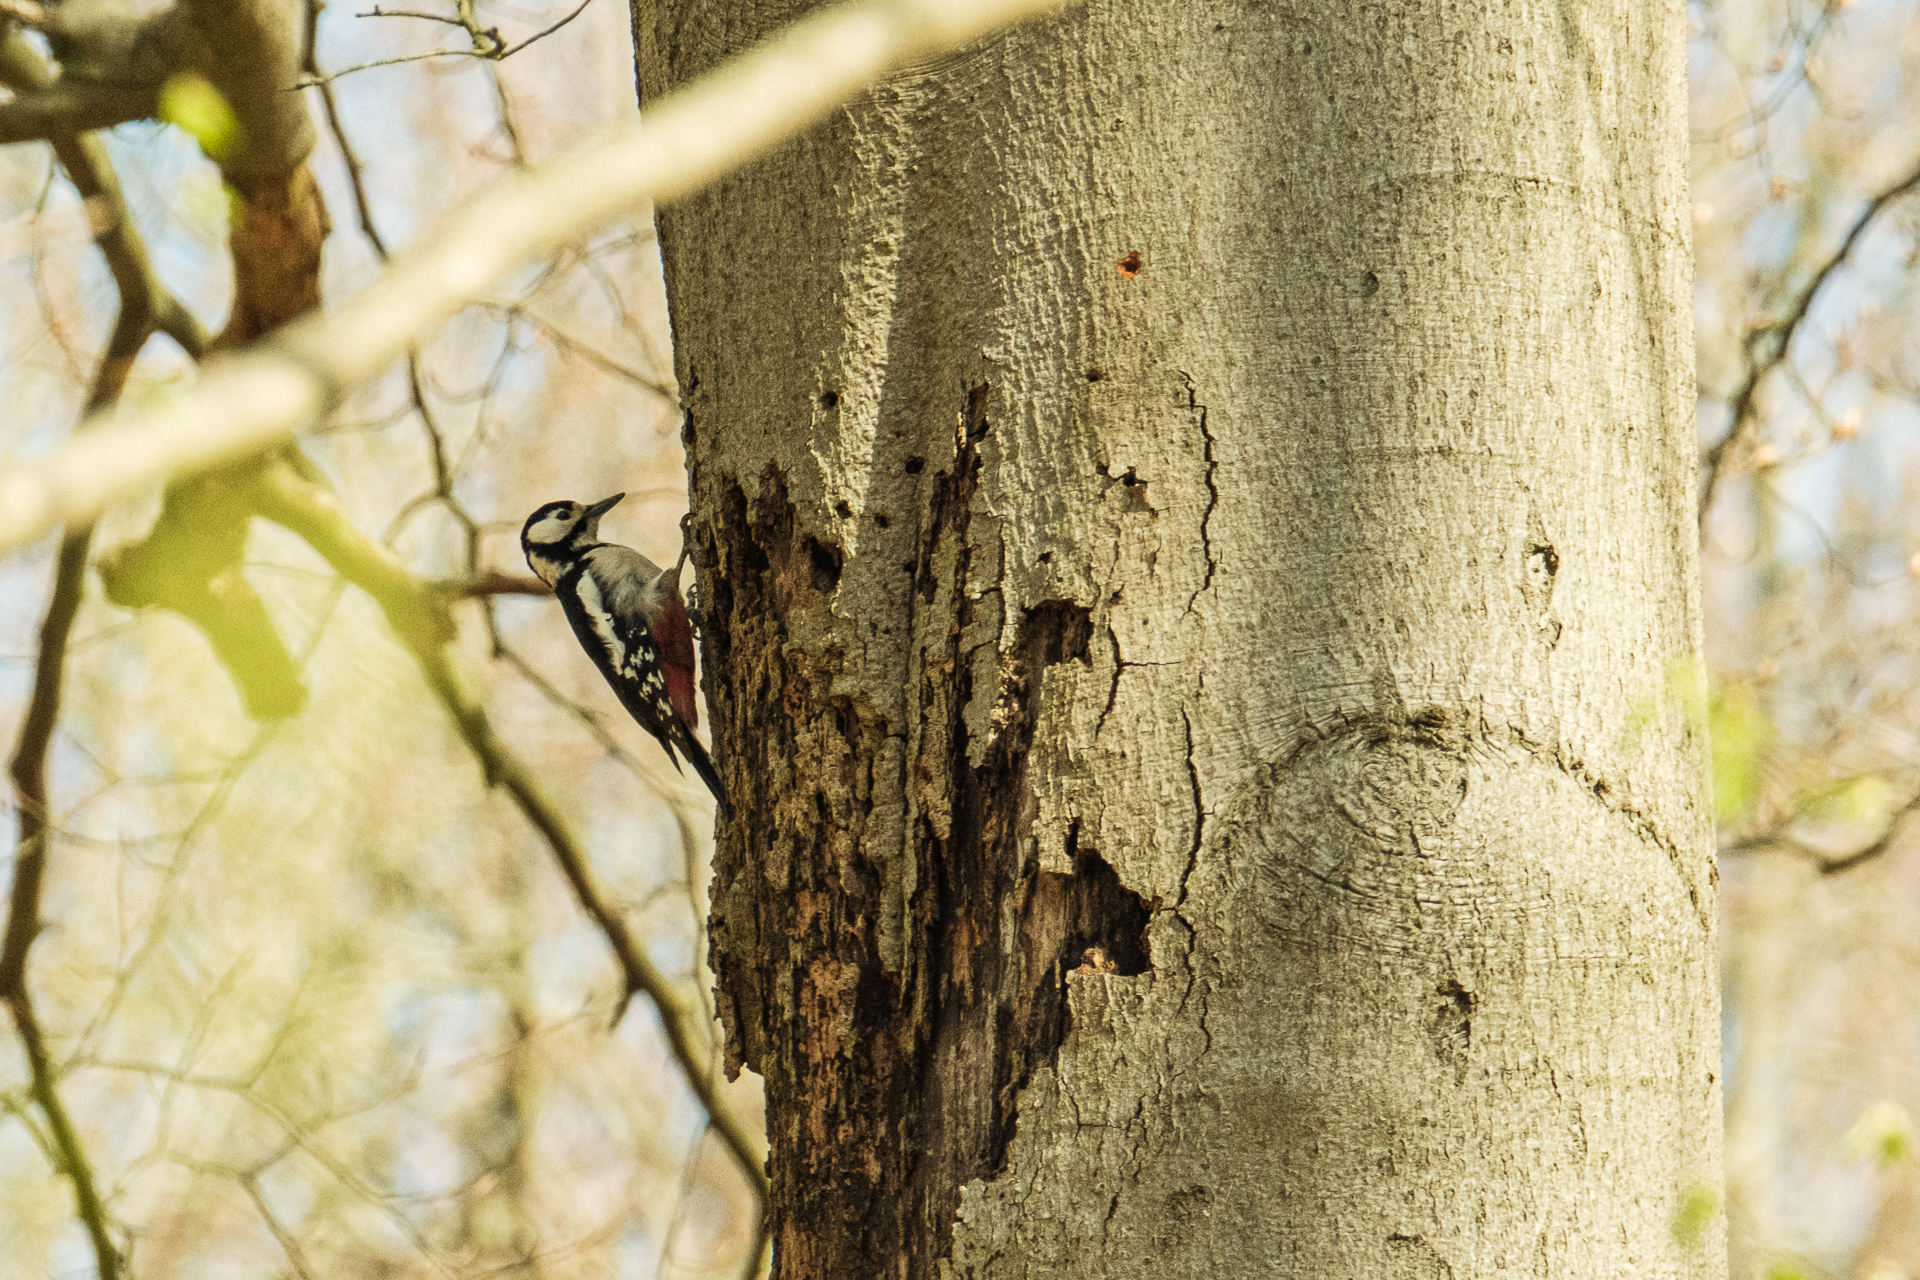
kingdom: Animalia
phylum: Chordata
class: Aves
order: Piciformes
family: Picidae
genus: Dendrocopos
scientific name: Dendrocopos major
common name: Great spotted woodpecker
